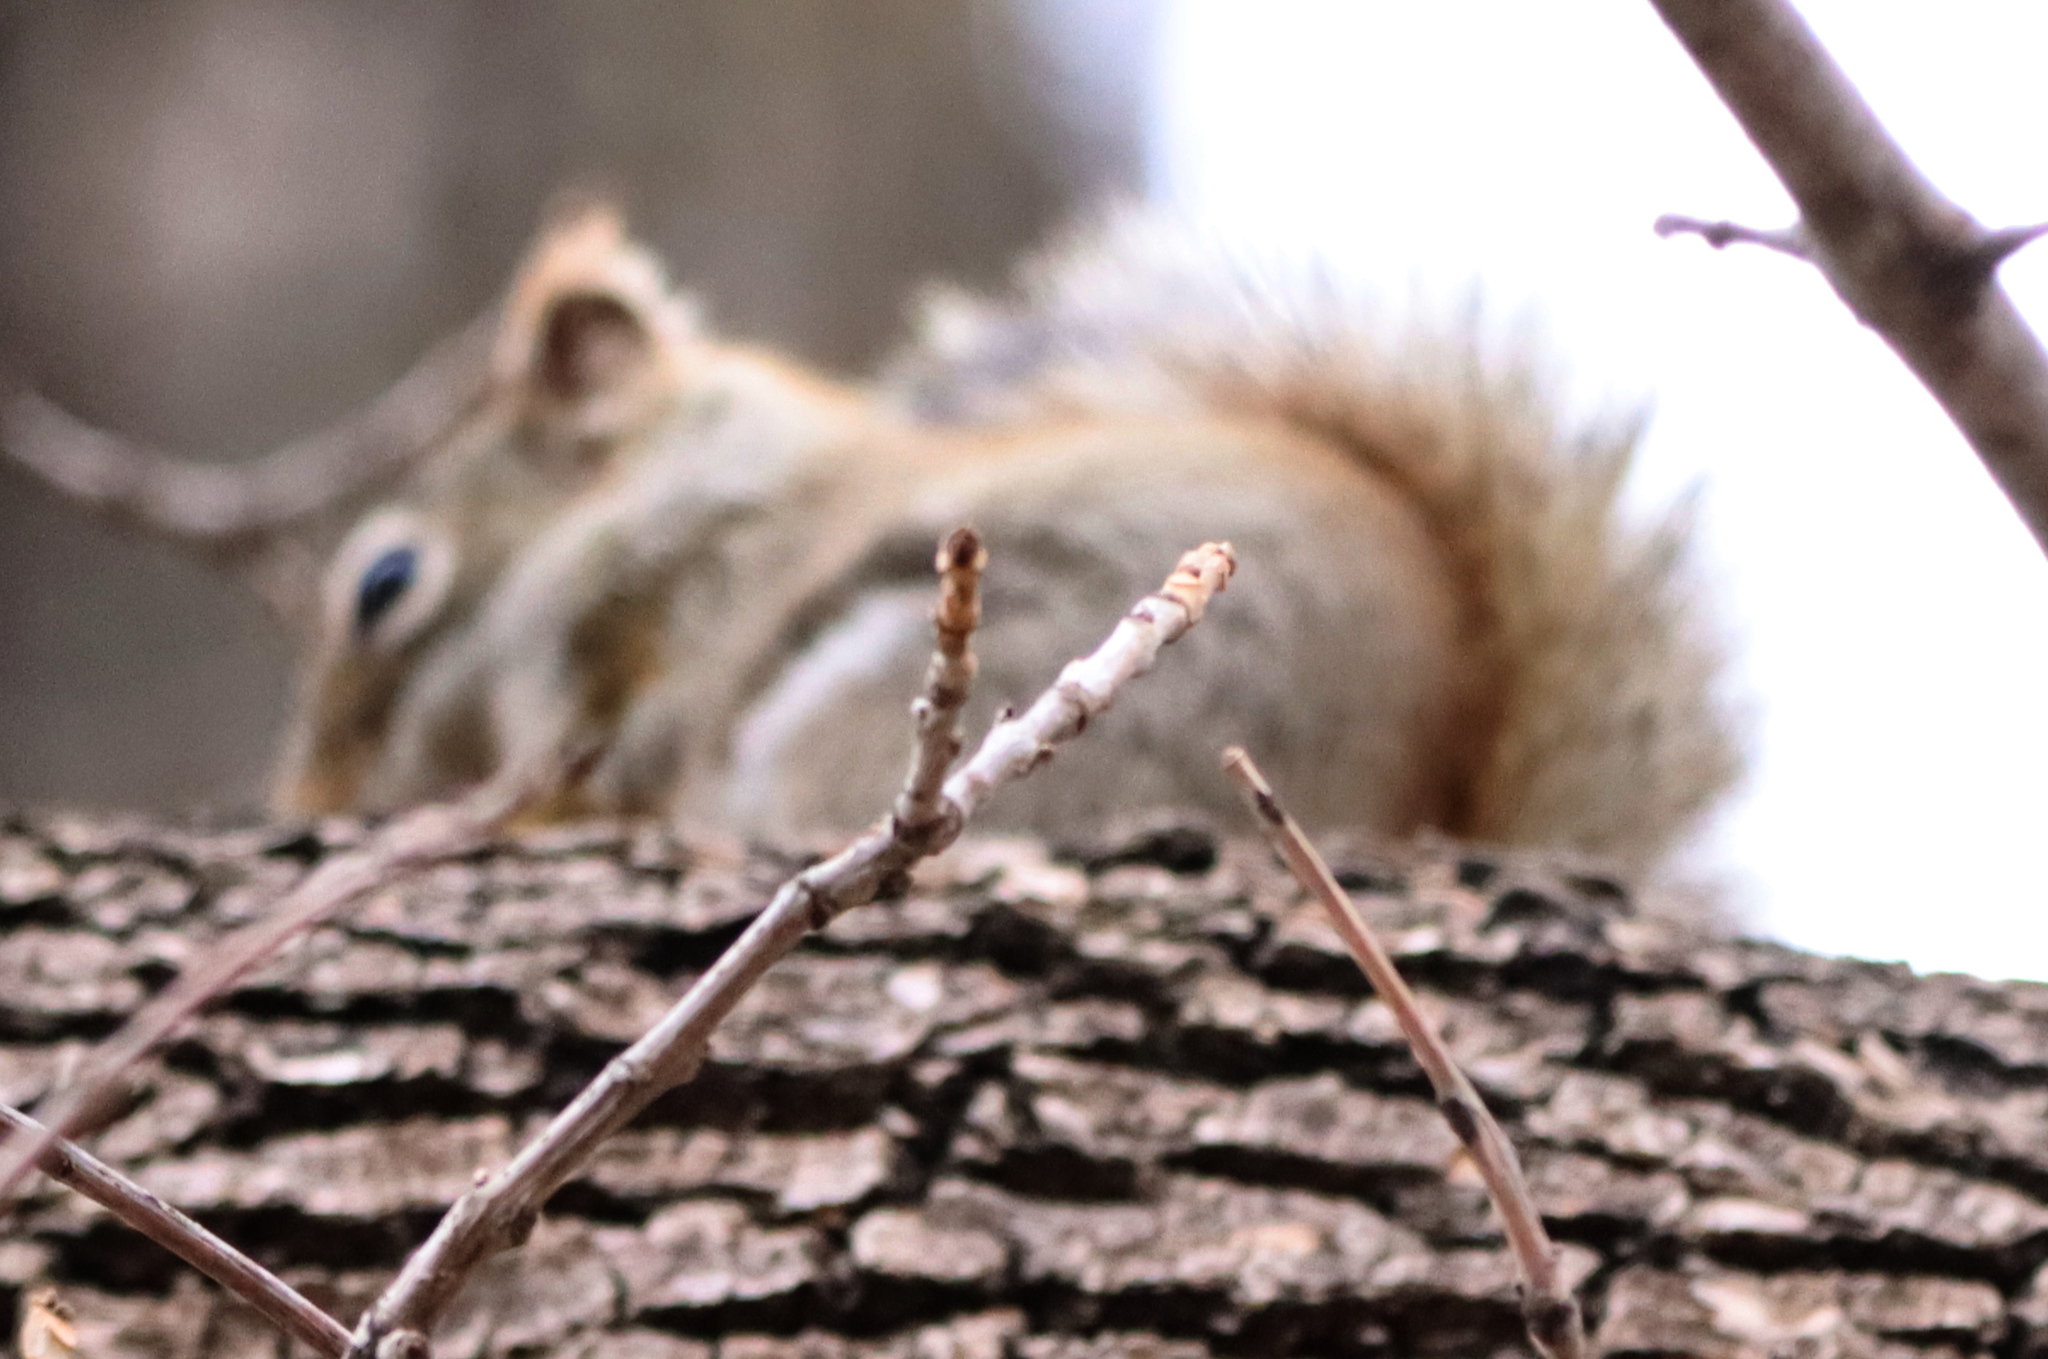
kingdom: Animalia
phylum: Chordata
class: Mammalia
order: Rodentia
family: Sciuridae
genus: Tamiasciurus
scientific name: Tamiasciurus hudsonicus
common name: Red squirrel
